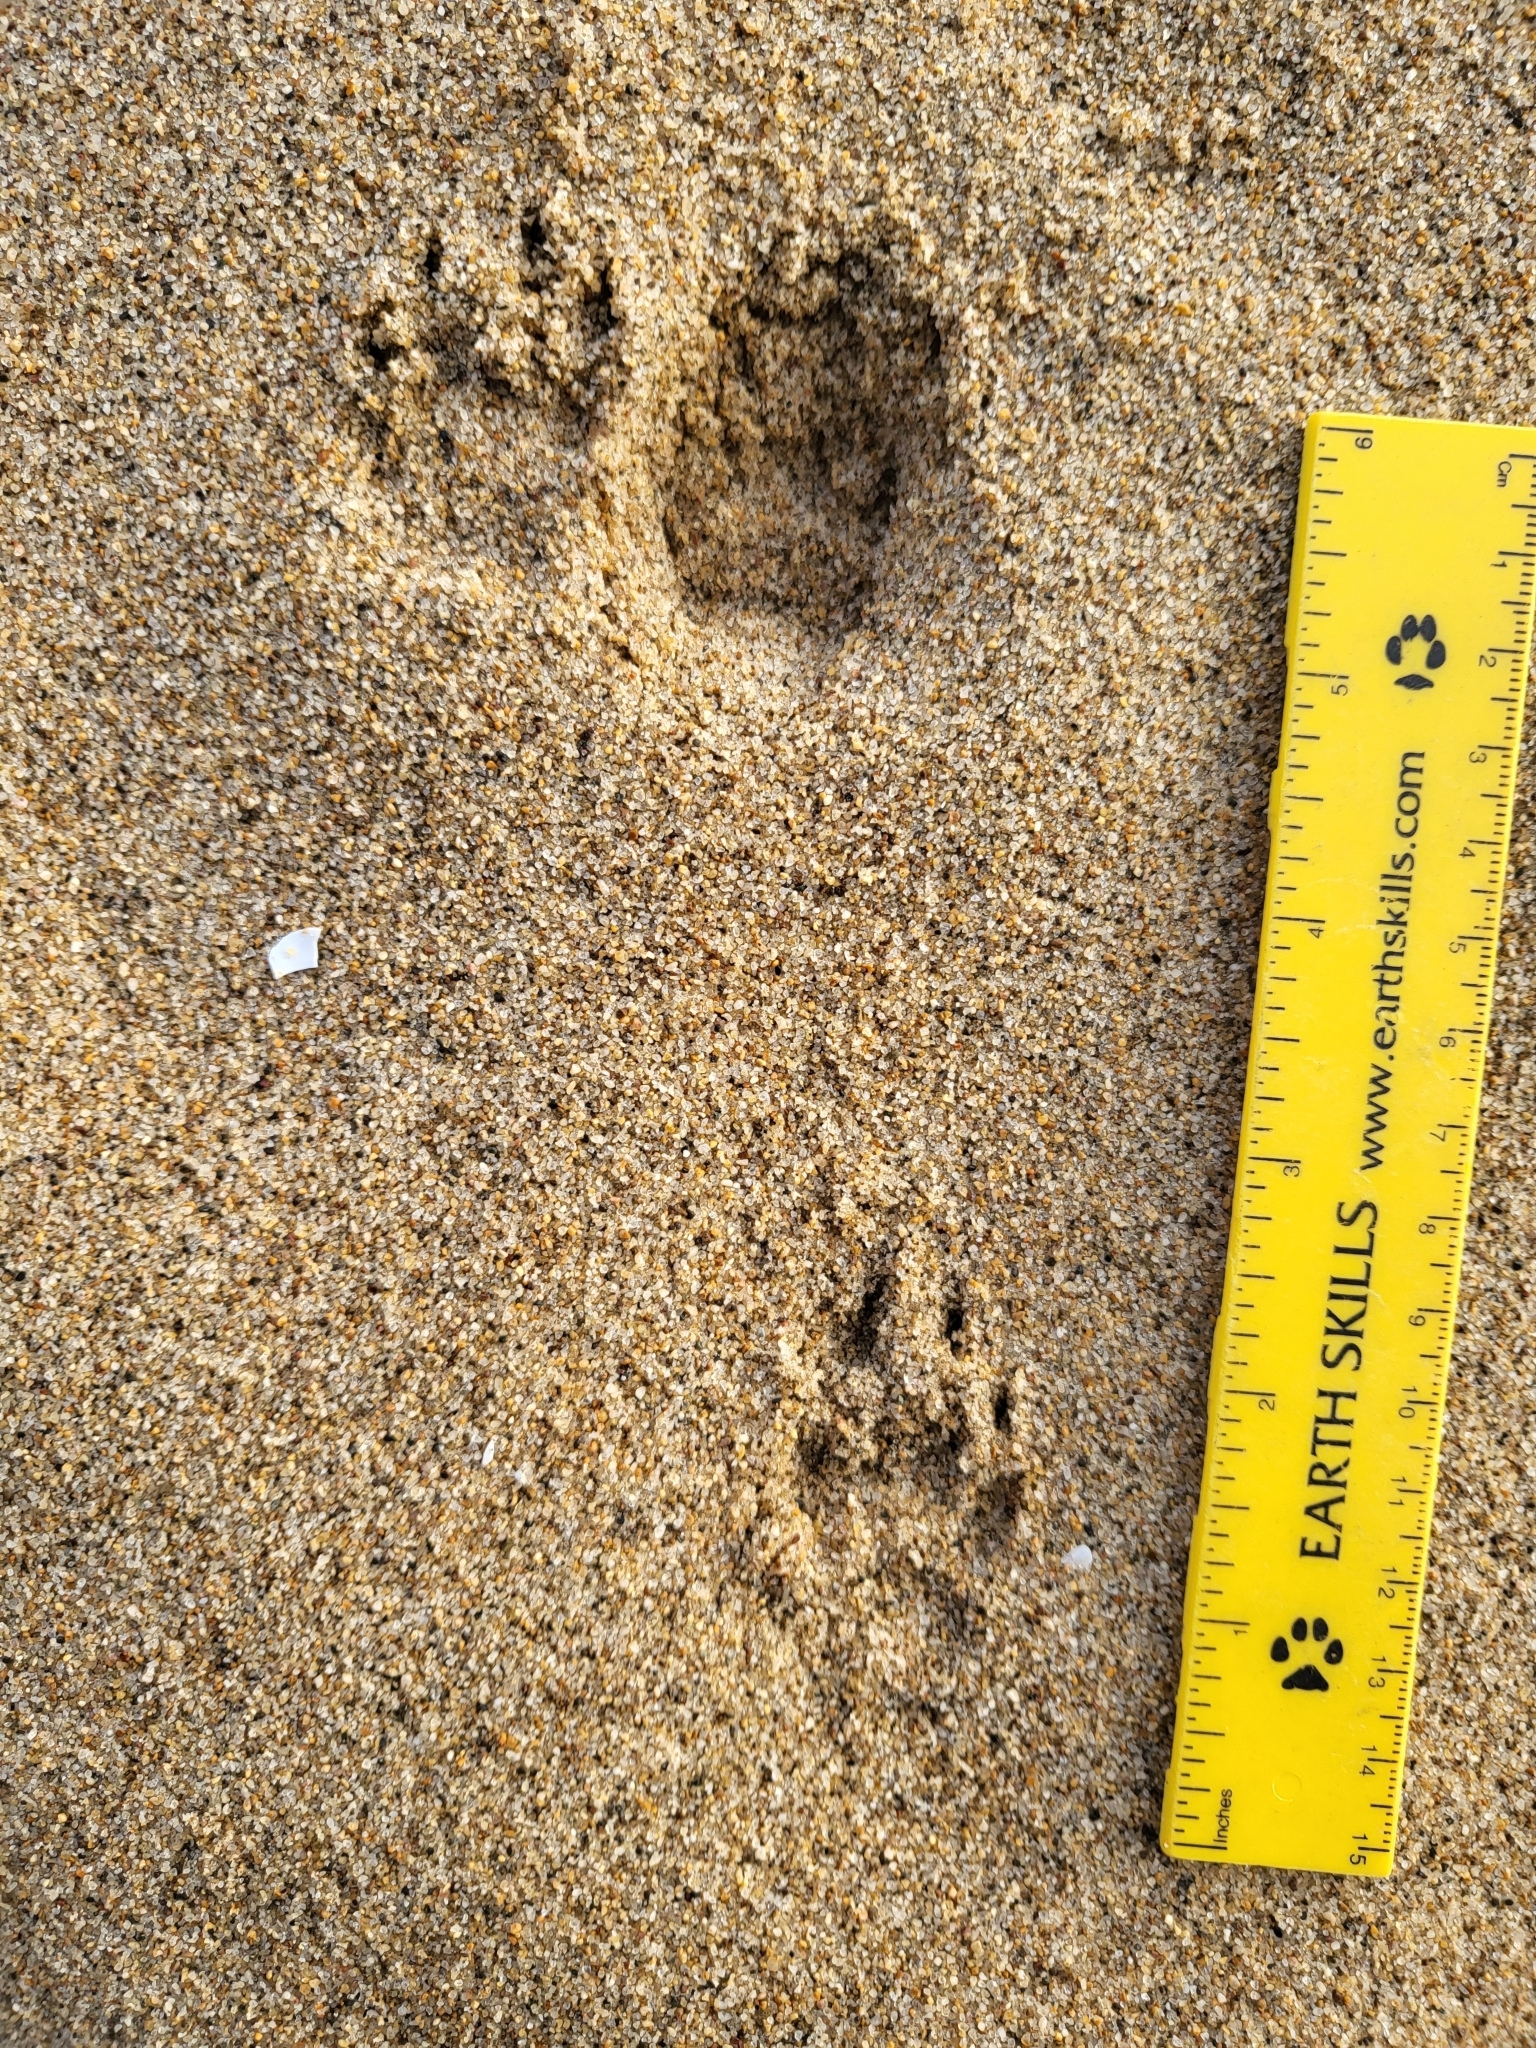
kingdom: Animalia
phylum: Chordata
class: Mammalia
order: Carnivora
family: Mephitidae
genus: Mephitis
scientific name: Mephitis mephitis
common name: Striped skunk
